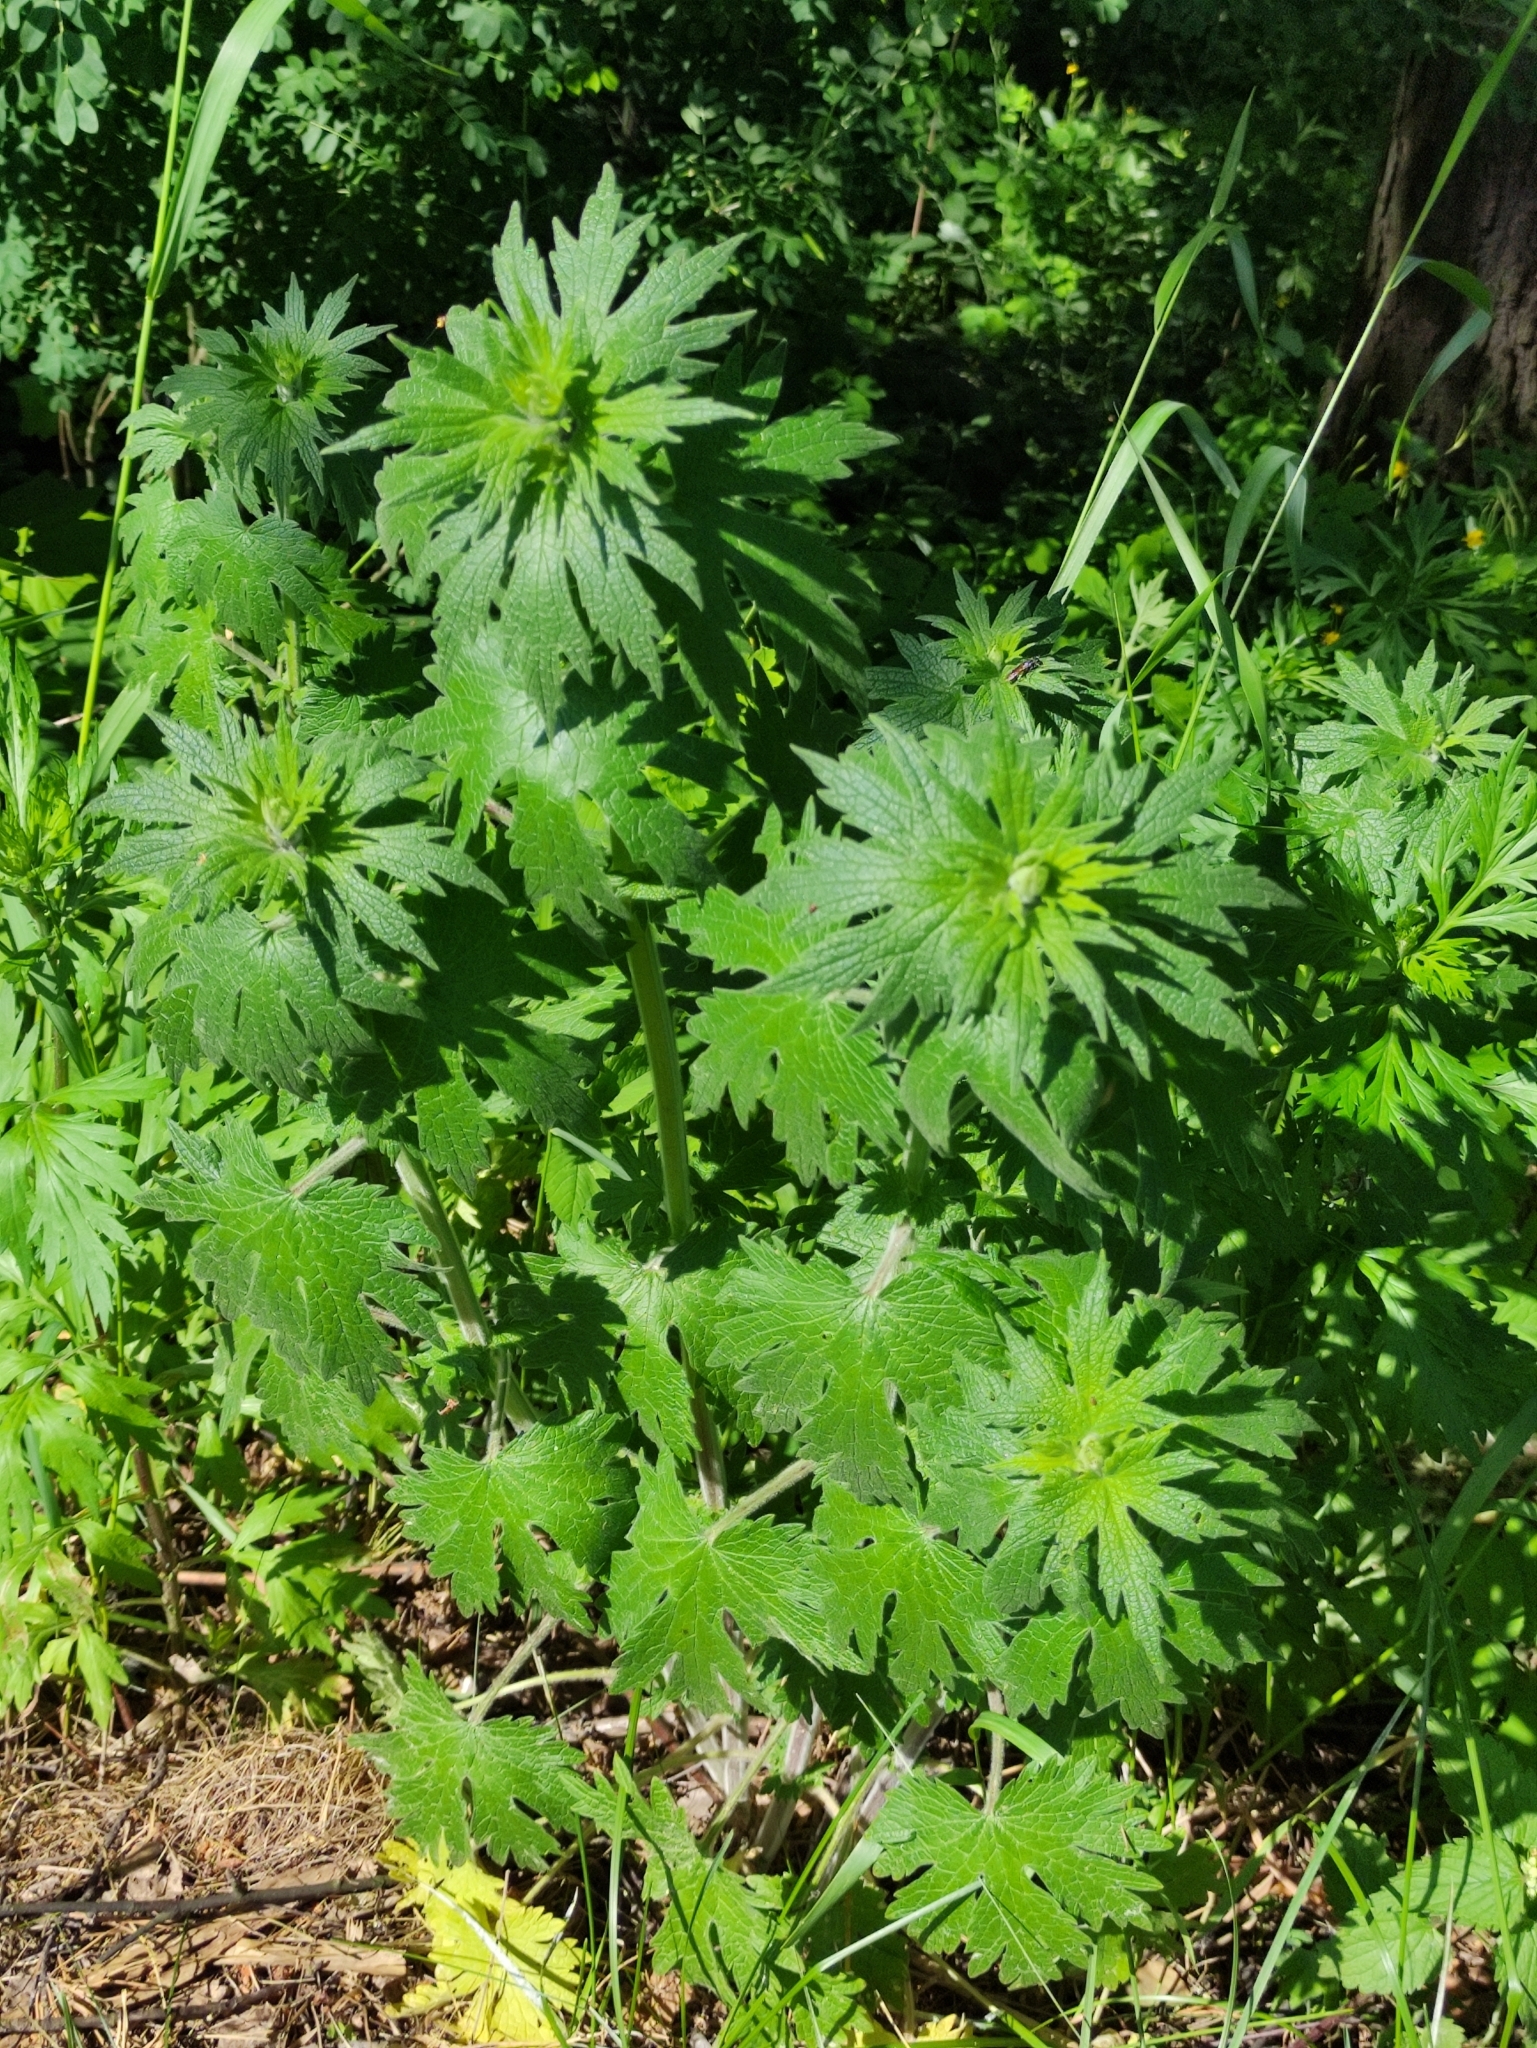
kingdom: Plantae
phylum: Tracheophyta
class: Magnoliopsida
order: Lamiales
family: Lamiaceae
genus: Leonurus
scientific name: Leonurus quinquelobatus
